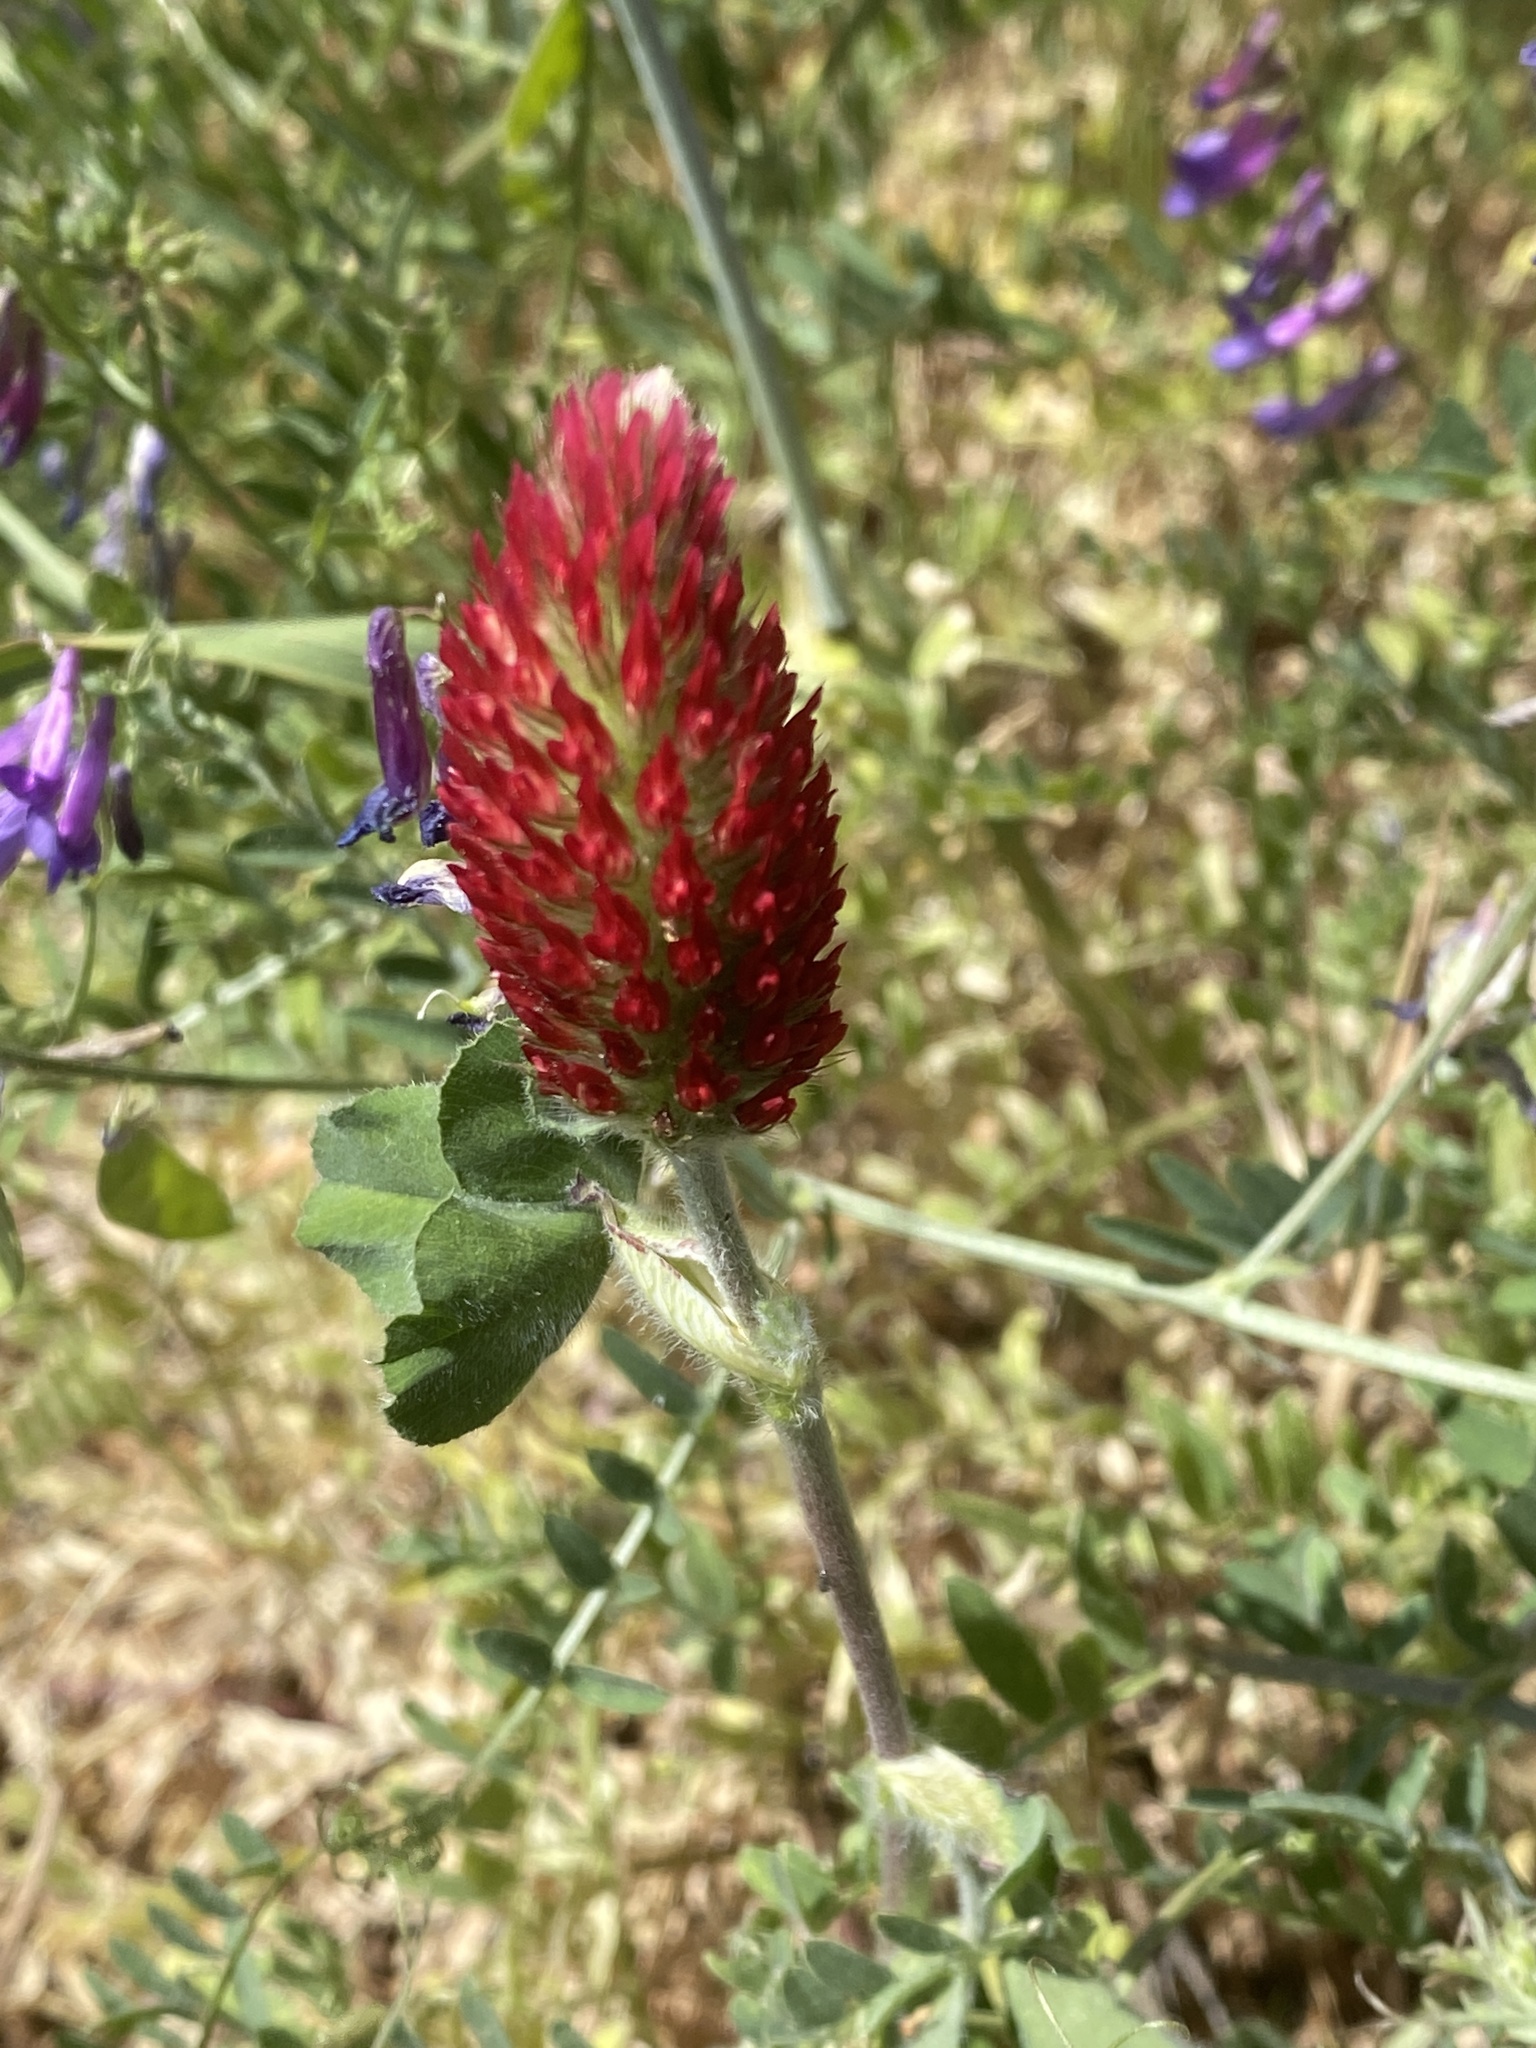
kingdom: Plantae
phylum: Tracheophyta
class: Magnoliopsida
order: Fabales
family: Fabaceae
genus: Trifolium
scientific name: Trifolium incarnatum
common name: Crimson clover
